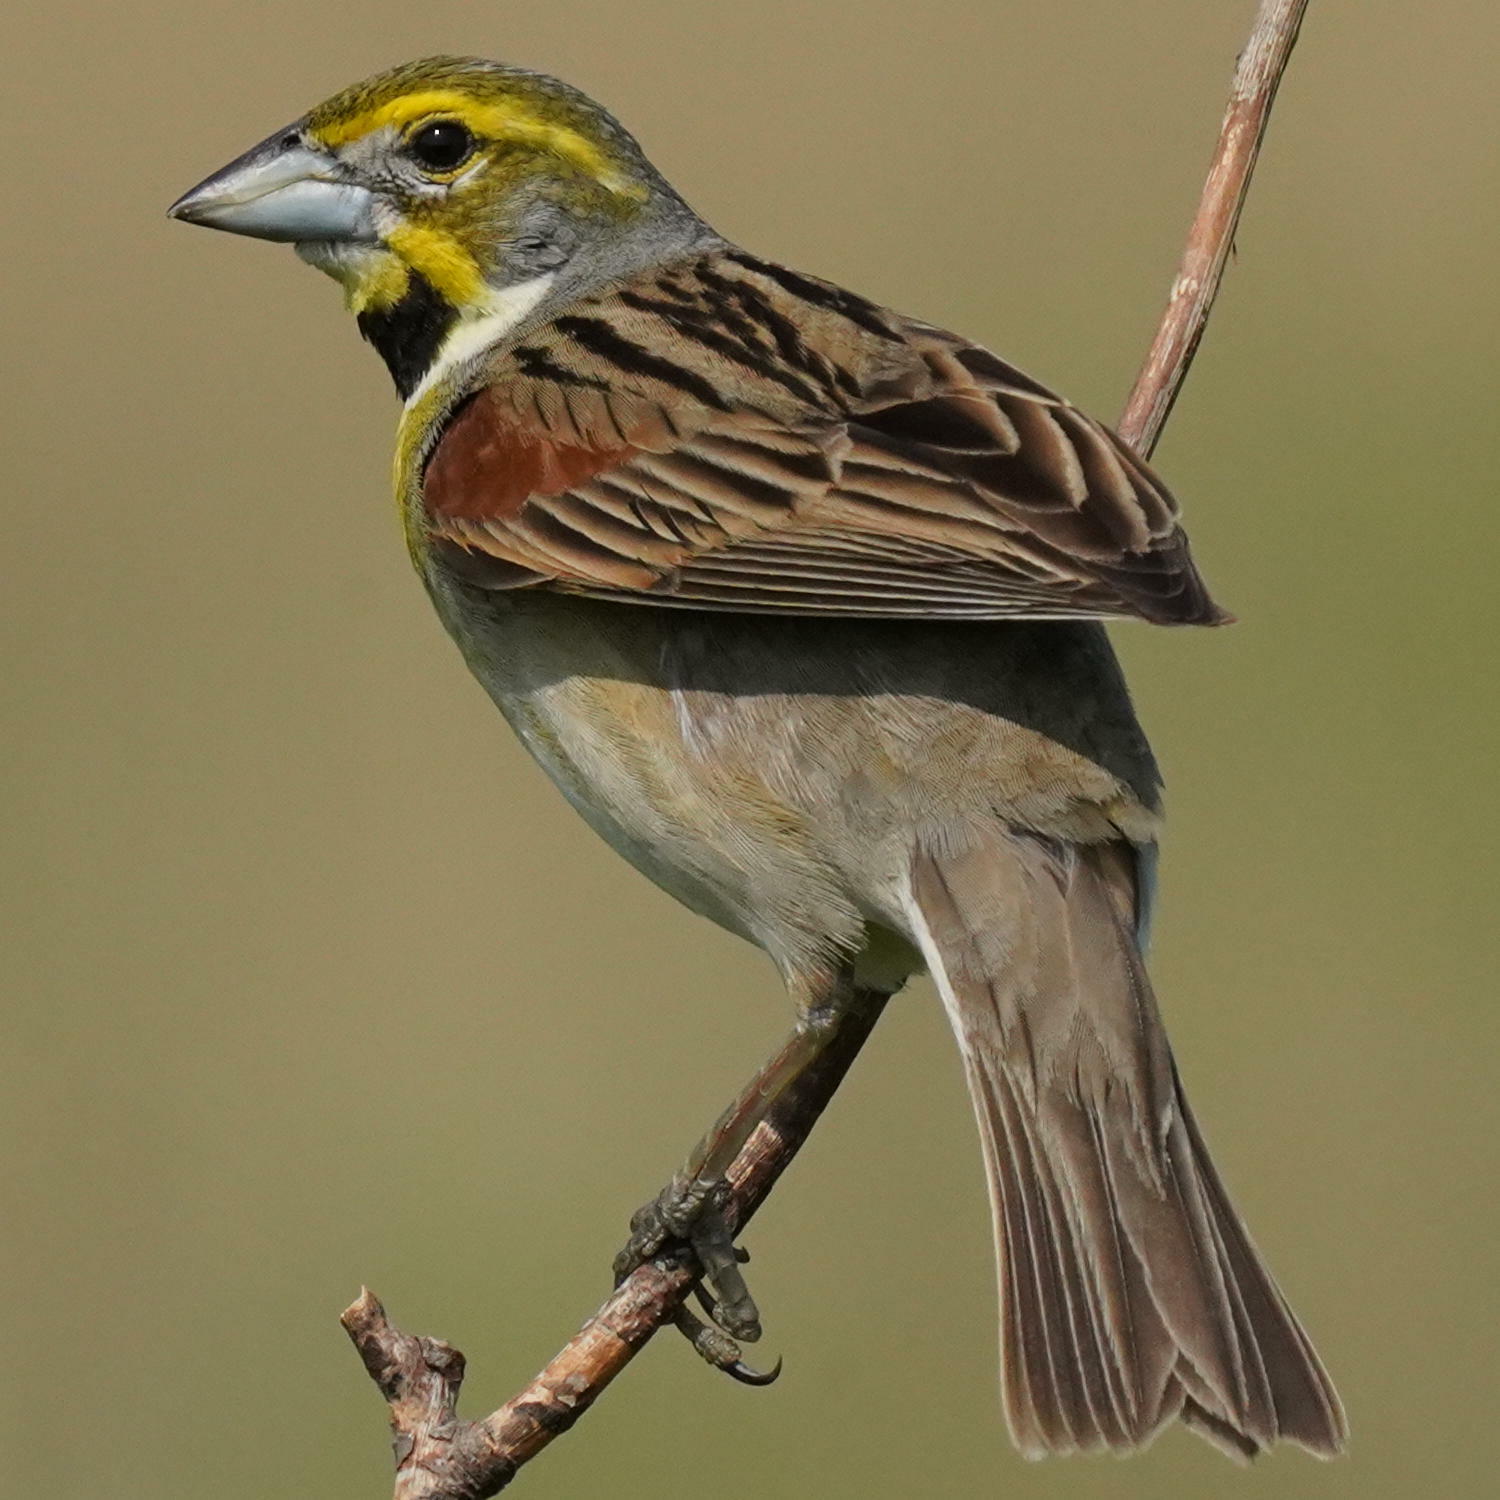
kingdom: Animalia
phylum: Chordata
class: Aves
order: Passeriformes
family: Cardinalidae
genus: Spiza
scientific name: Spiza americana
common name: Dickcissel
